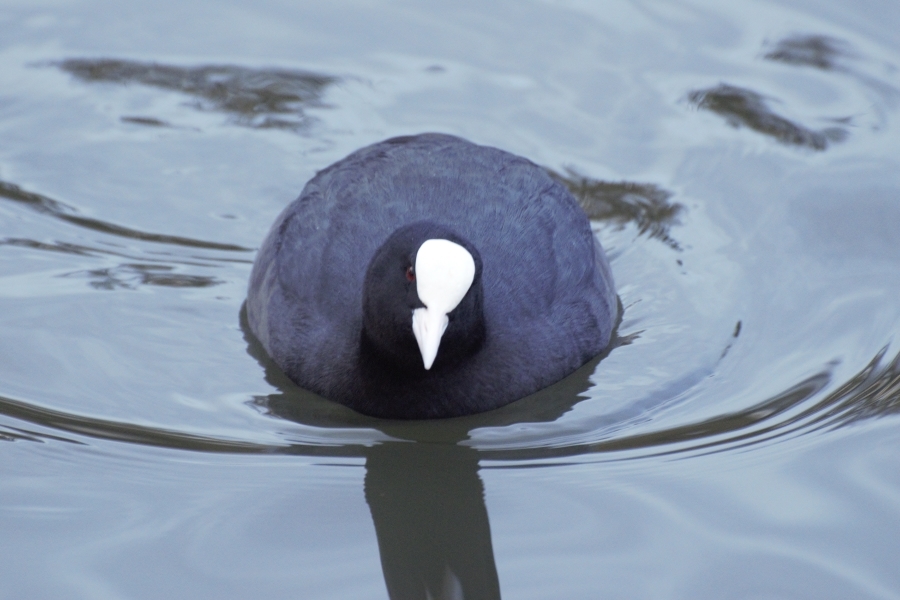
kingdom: Animalia
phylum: Chordata
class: Aves
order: Gruiformes
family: Rallidae
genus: Fulica
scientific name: Fulica atra
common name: Eurasian coot
